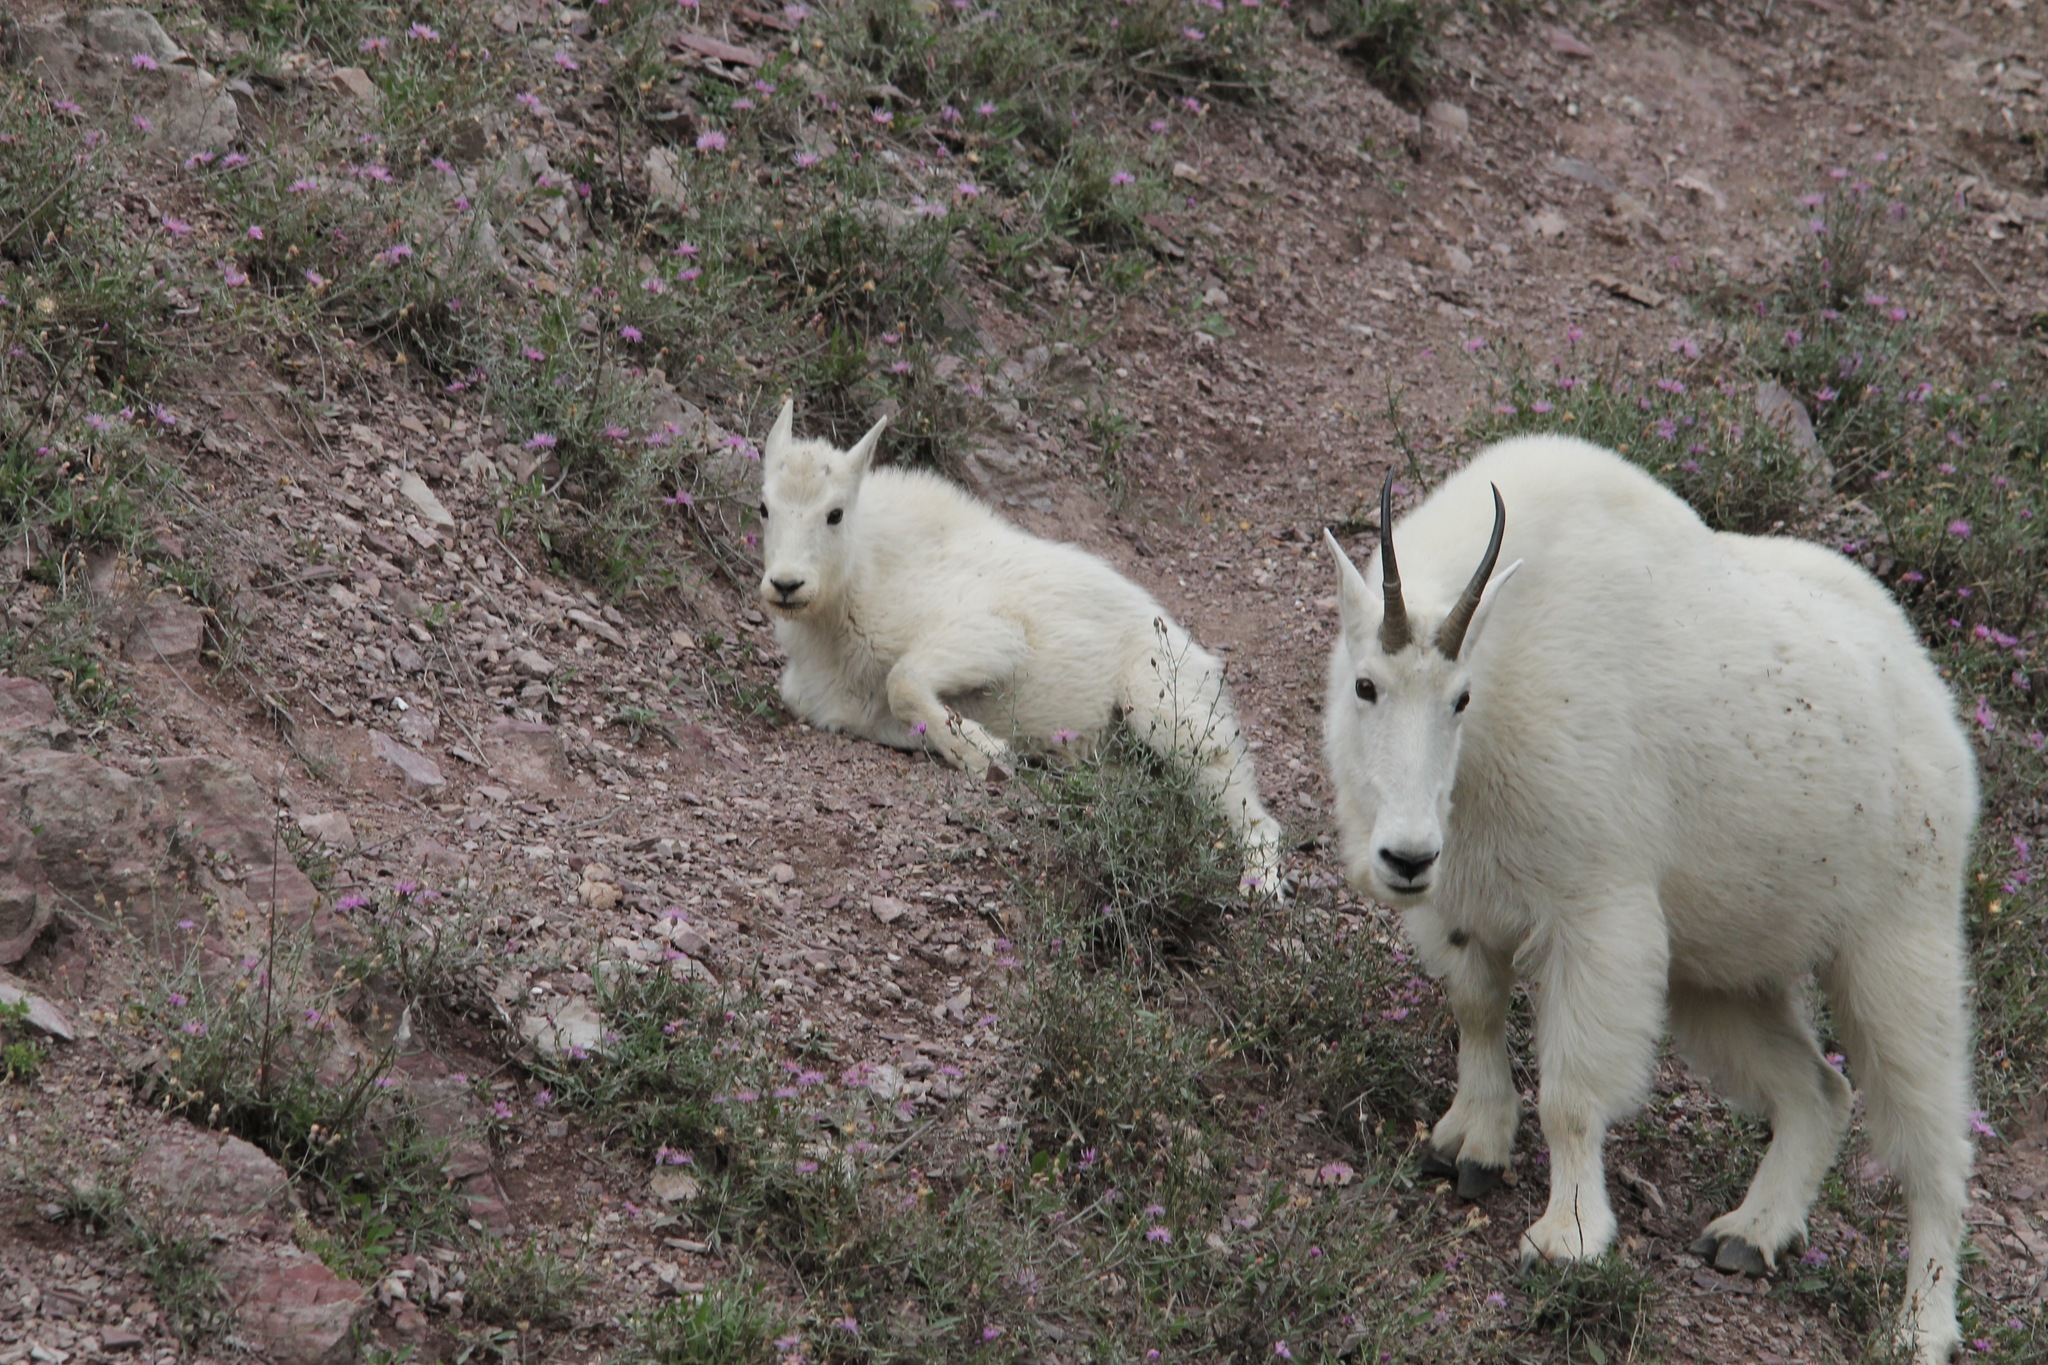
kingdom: Animalia
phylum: Chordata
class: Mammalia
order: Artiodactyla
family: Bovidae
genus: Oreamnos
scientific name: Oreamnos americanus
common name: Mountain goat
